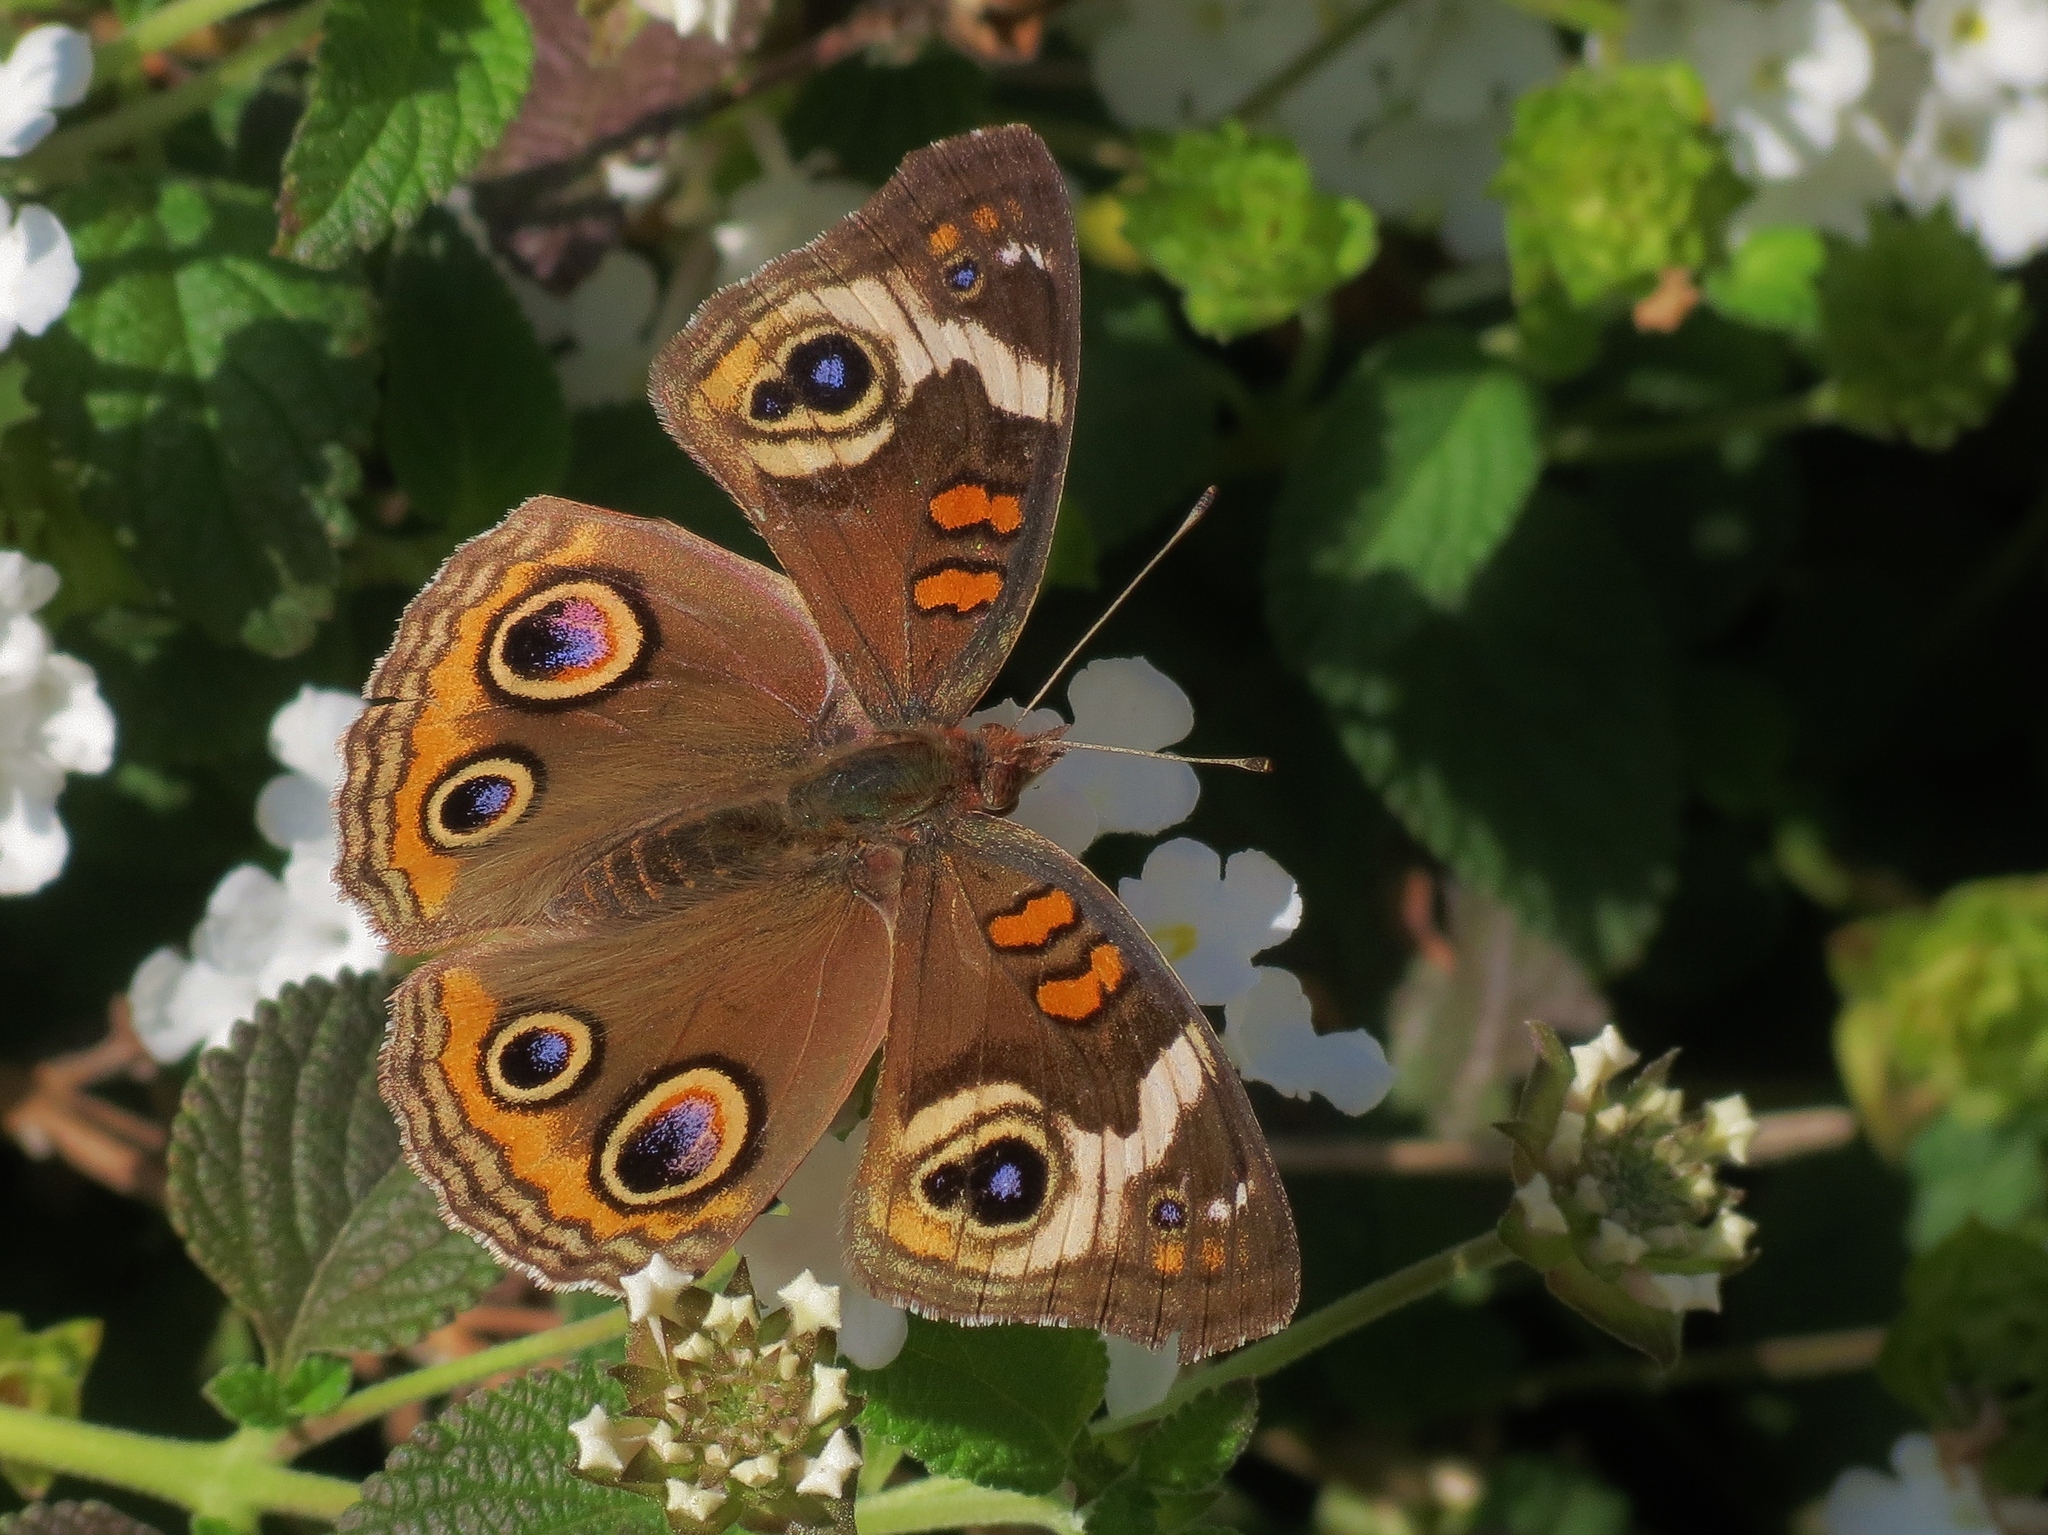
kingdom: Animalia
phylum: Arthropoda
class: Insecta
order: Lepidoptera
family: Nymphalidae
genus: Junonia
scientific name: Junonia coenia
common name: Common buckeye
